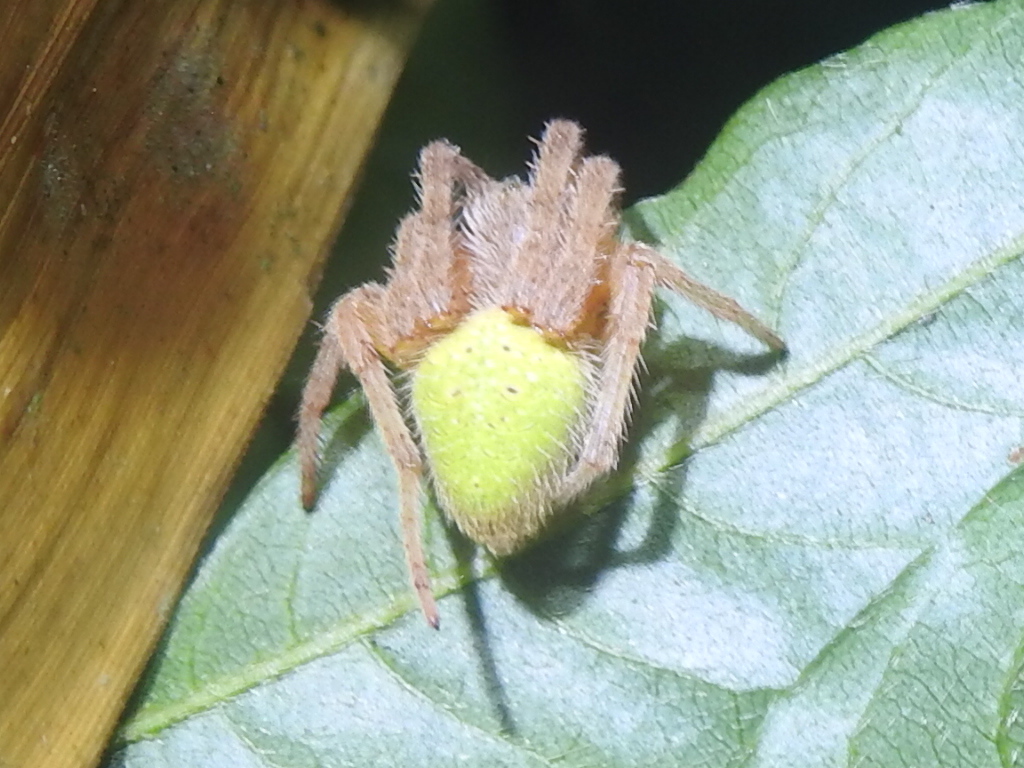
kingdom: Animalia
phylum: Arthropoda
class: Arachnida
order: Araneae
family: Araneidae
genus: Eriophora
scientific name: Eriophora ravilla
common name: Orb weavers
